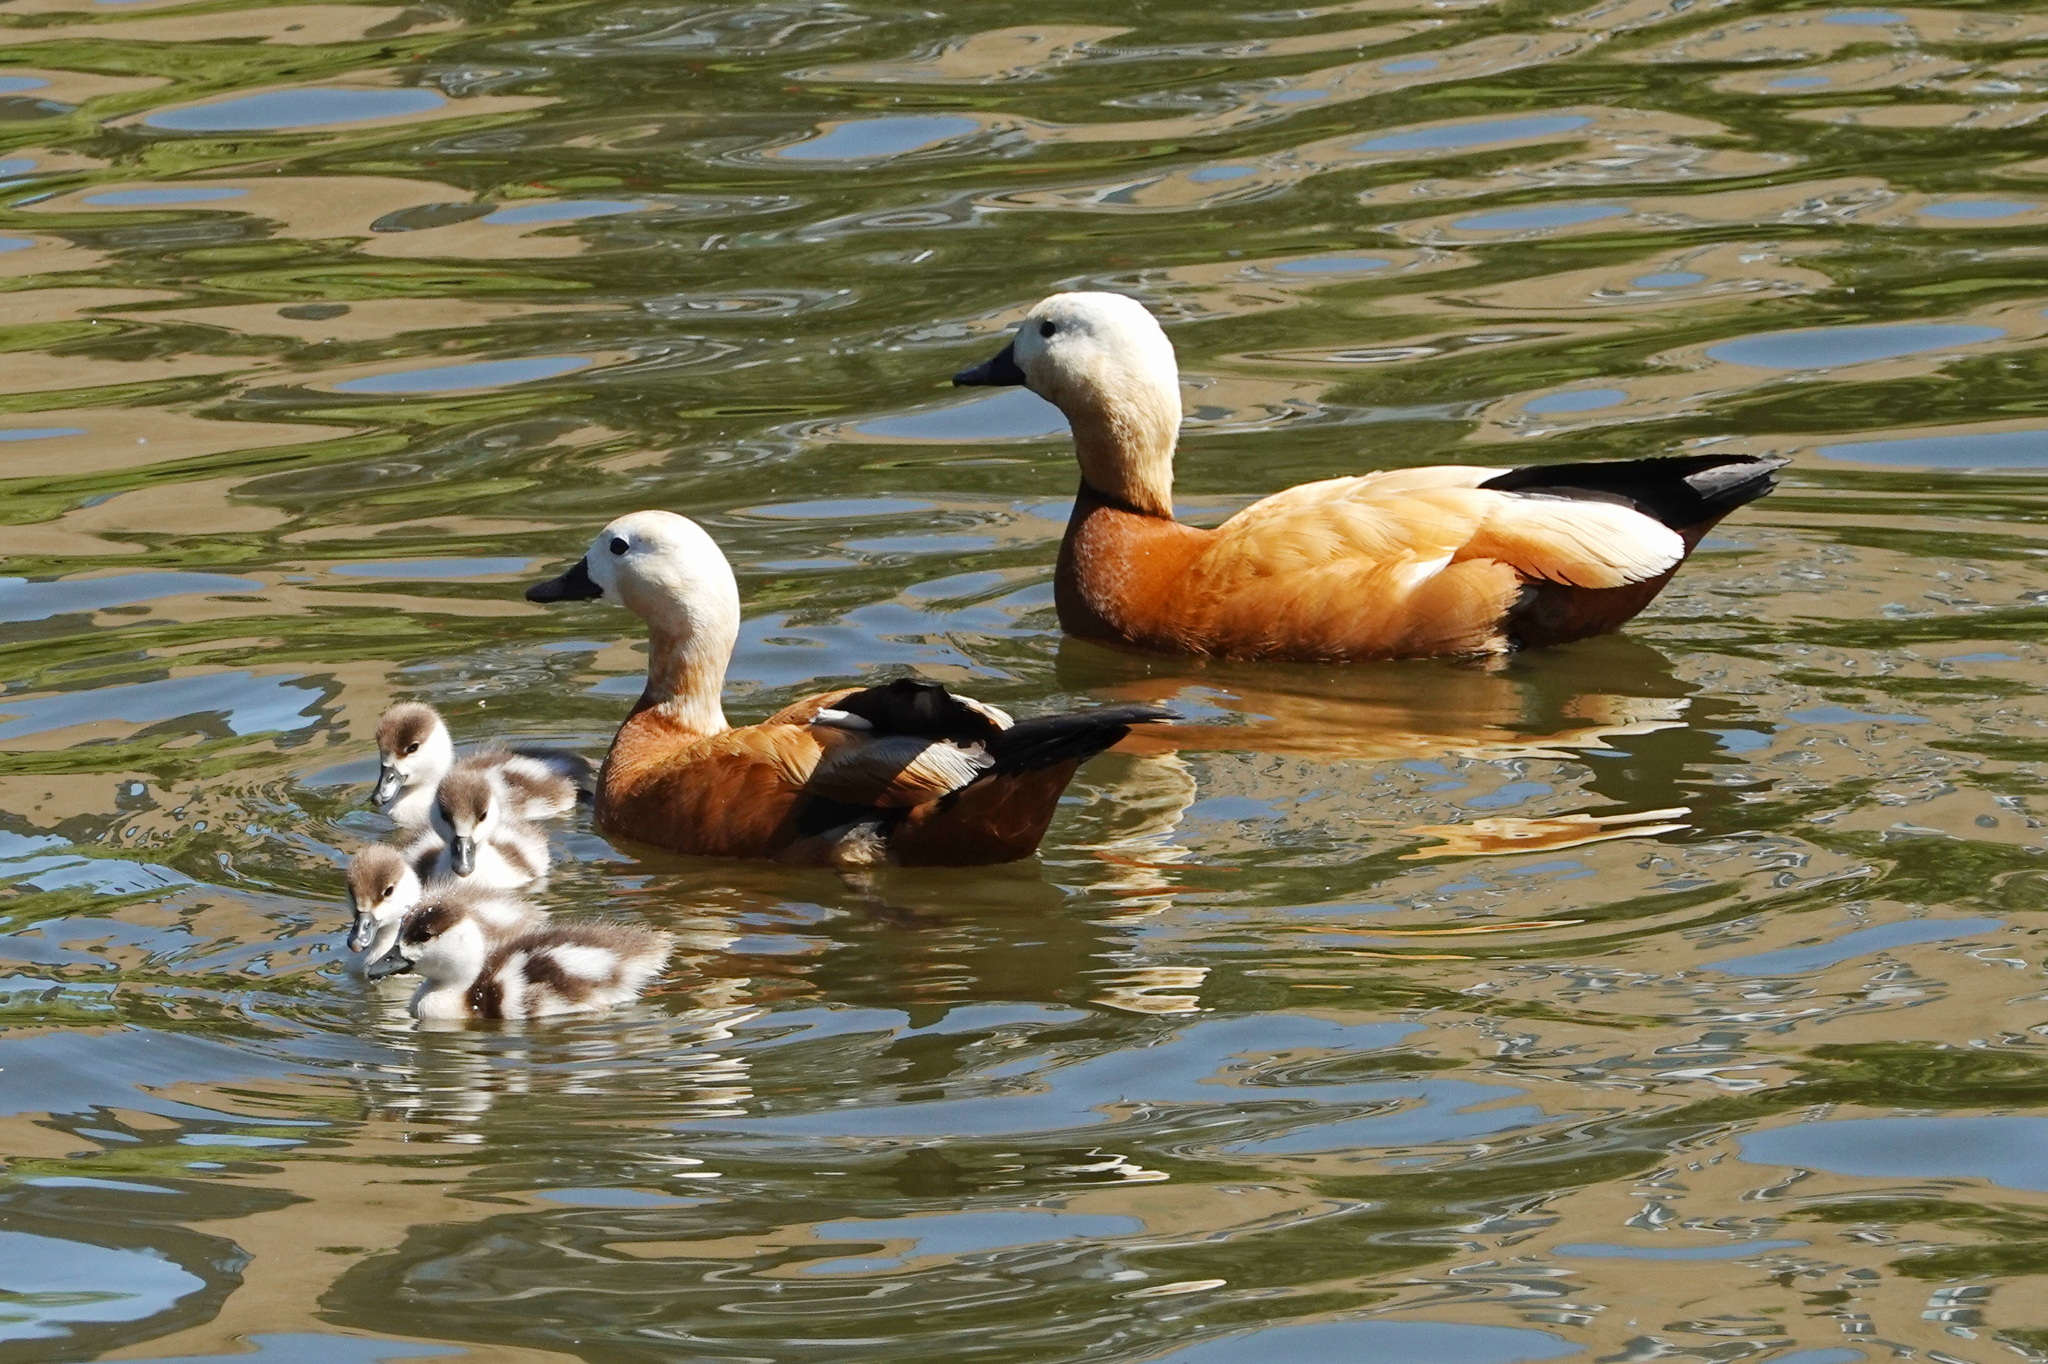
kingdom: Animalia
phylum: Chordata
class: Aves
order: Anseriformes
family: Anatidae
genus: Tadorna
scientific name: Tadorna ferruginea
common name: Ruddy shelduck
